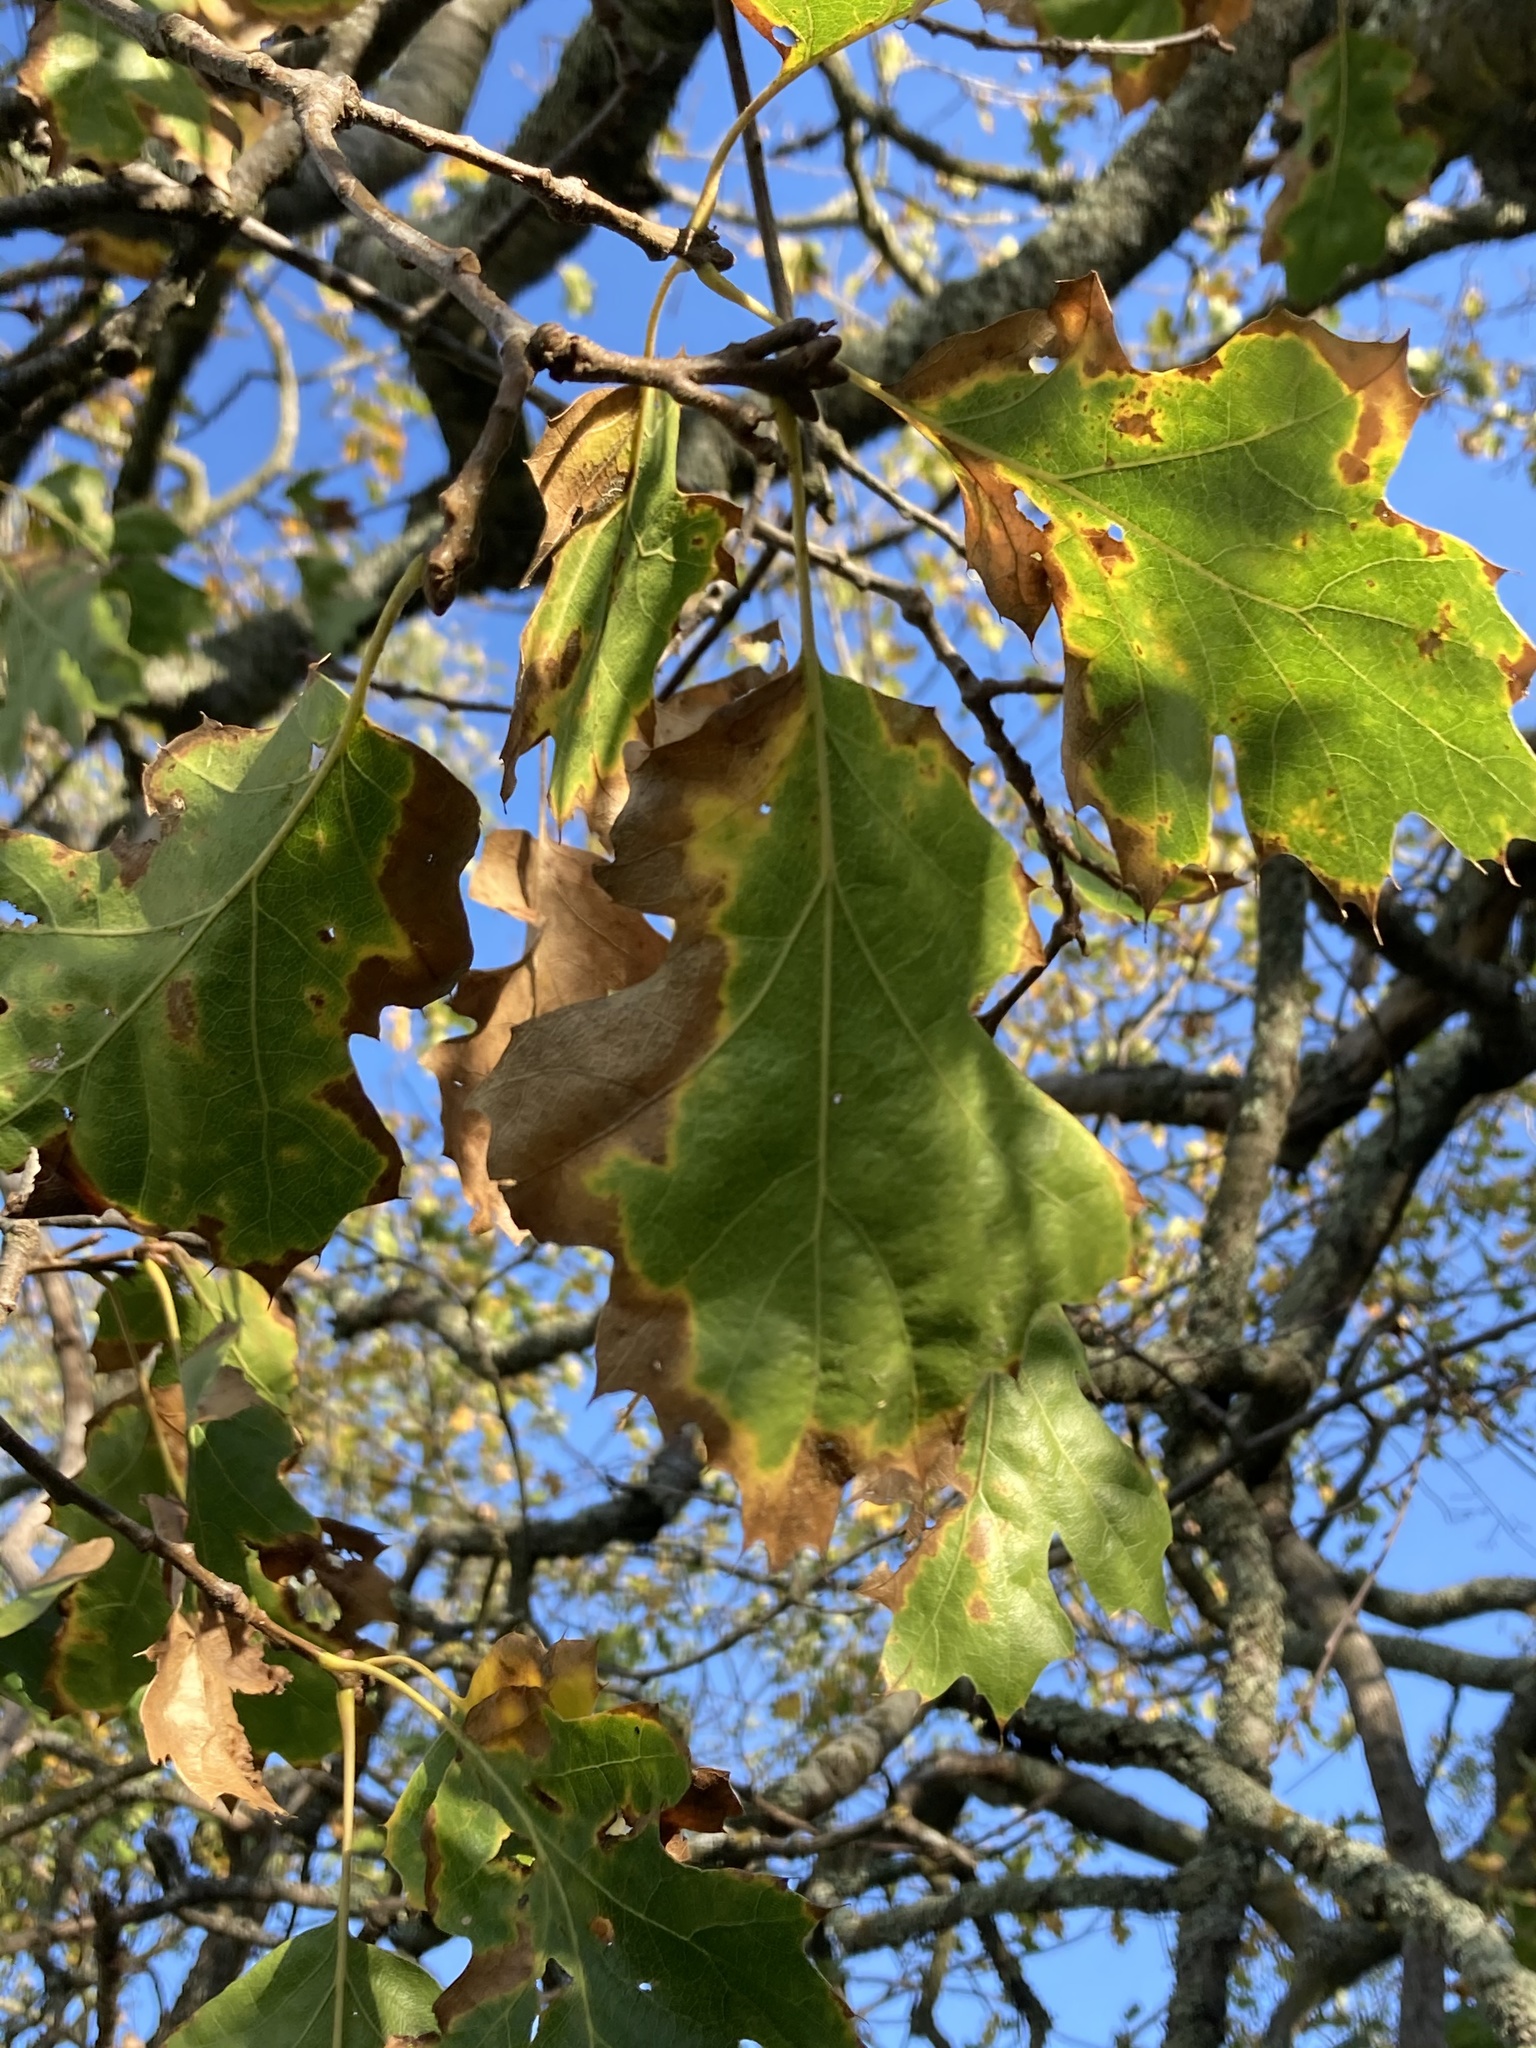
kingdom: Plantae
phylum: Tracheophyta
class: Magnoliopsida
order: Fagales
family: Fagaceae
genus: Quercus
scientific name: Quercus kelloggii
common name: California black oak
